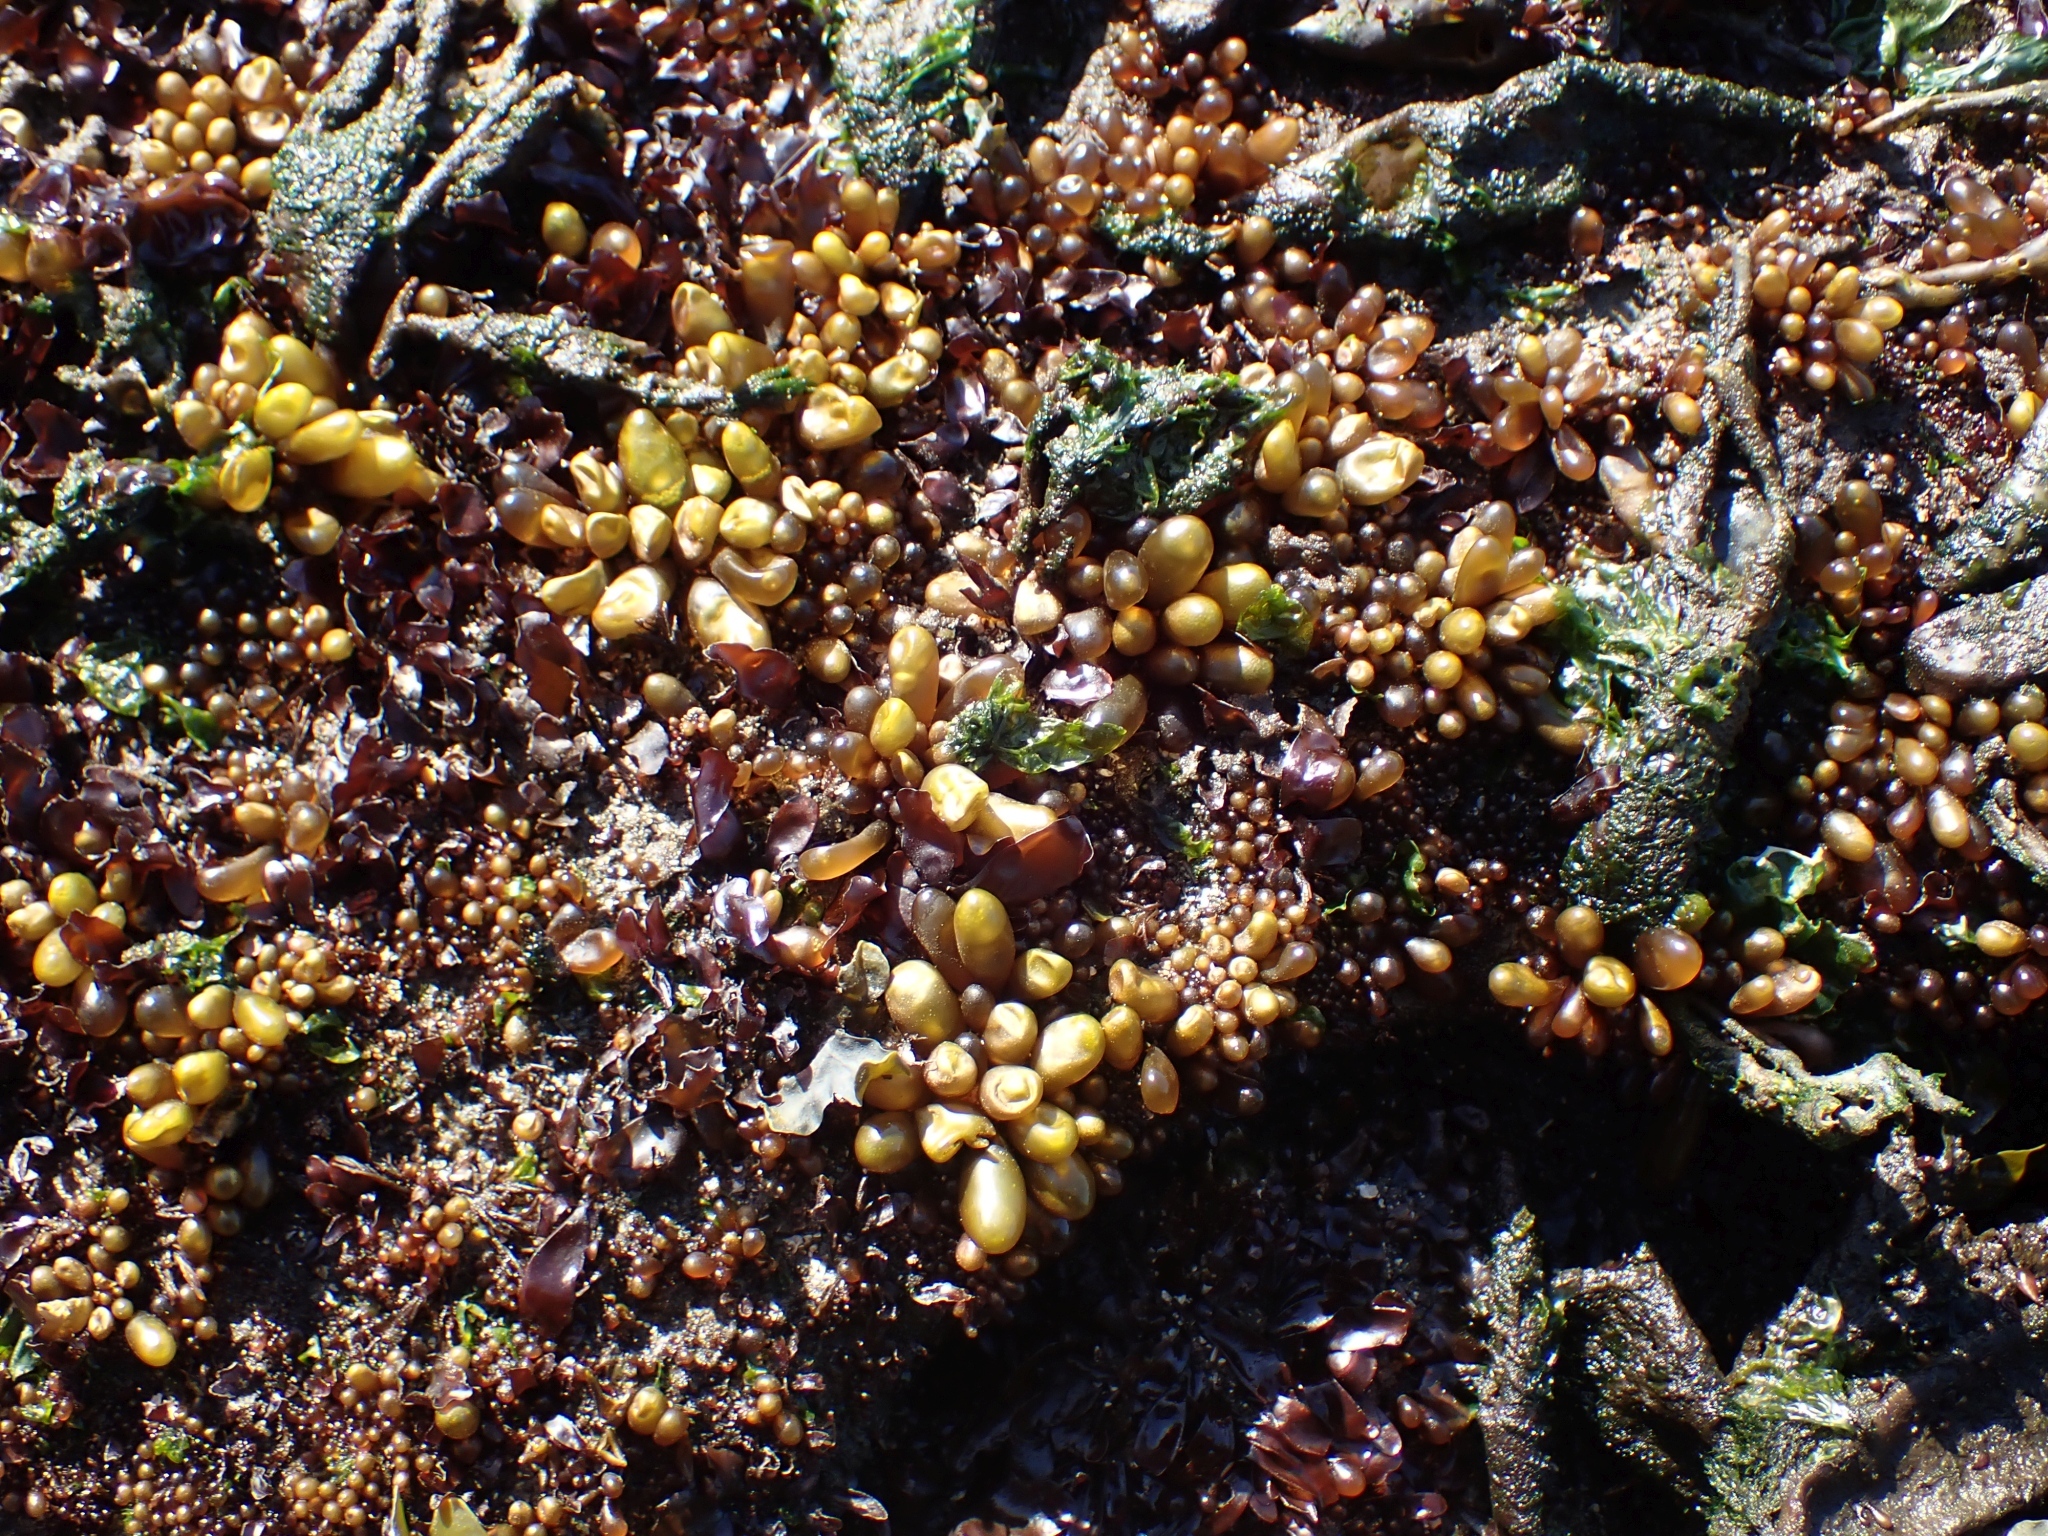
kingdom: Plantae
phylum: Rhodophyta
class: Florideophyceae
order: Palmariales
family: Palmariaceae
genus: Halosaccion
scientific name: Halosaccion glandiforme
